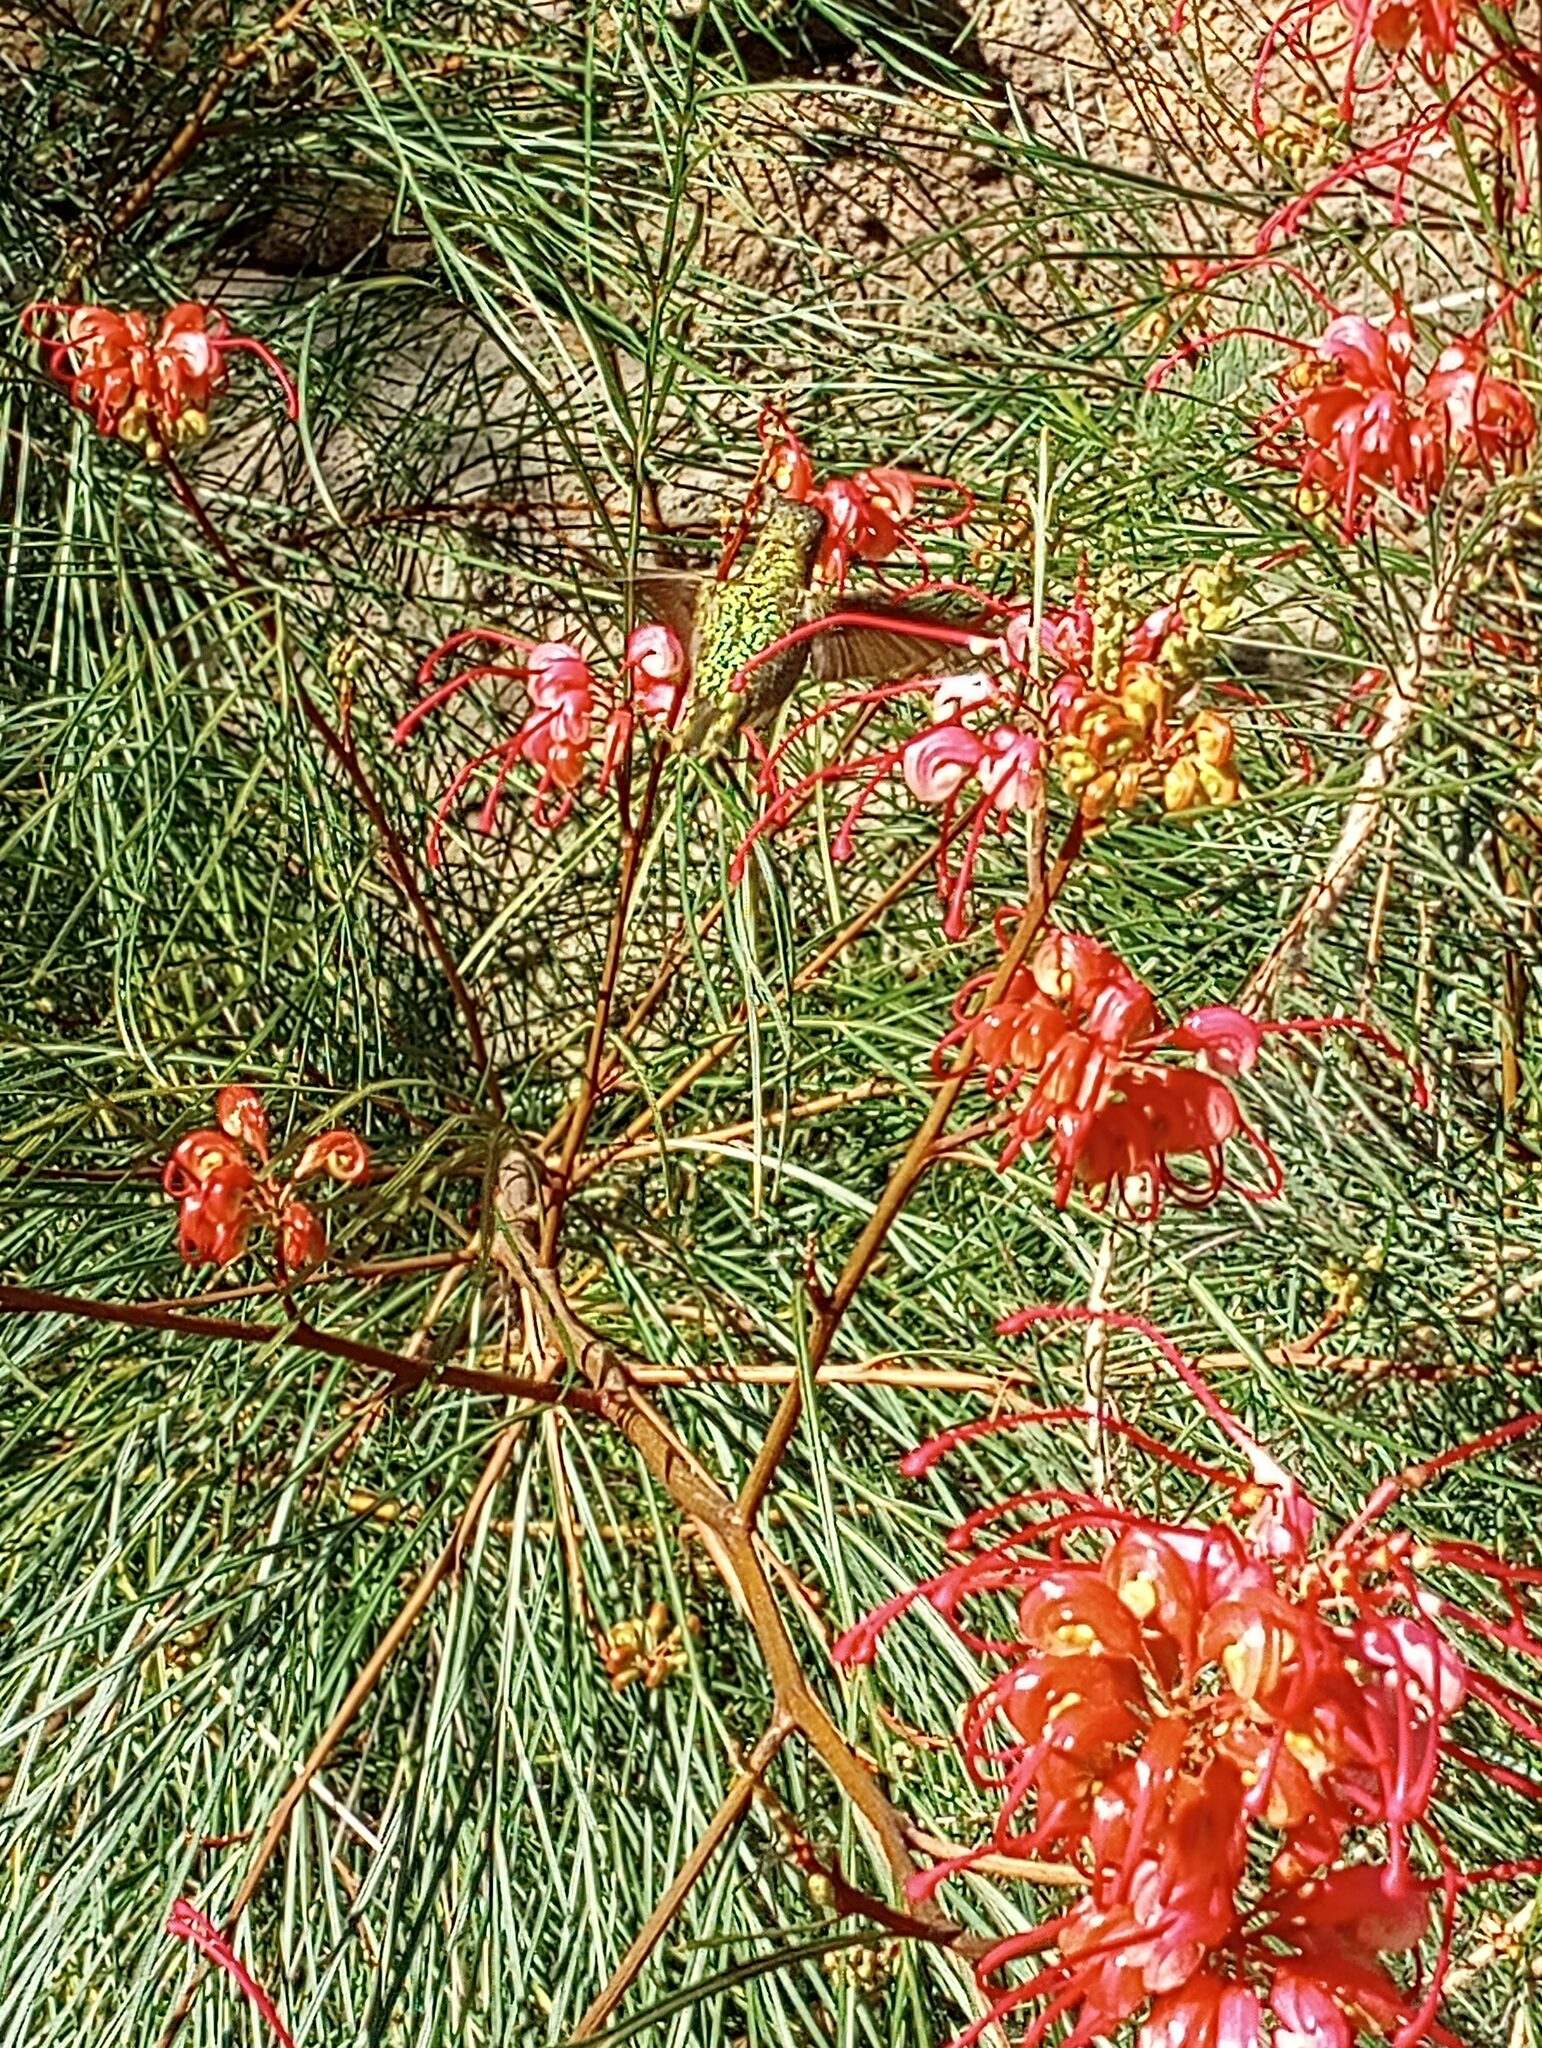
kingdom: Animalia
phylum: Chordata
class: Aves
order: Apodiformes
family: Trochilidae
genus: Calypte
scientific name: Calypte anna
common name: Anna's hummingbird
